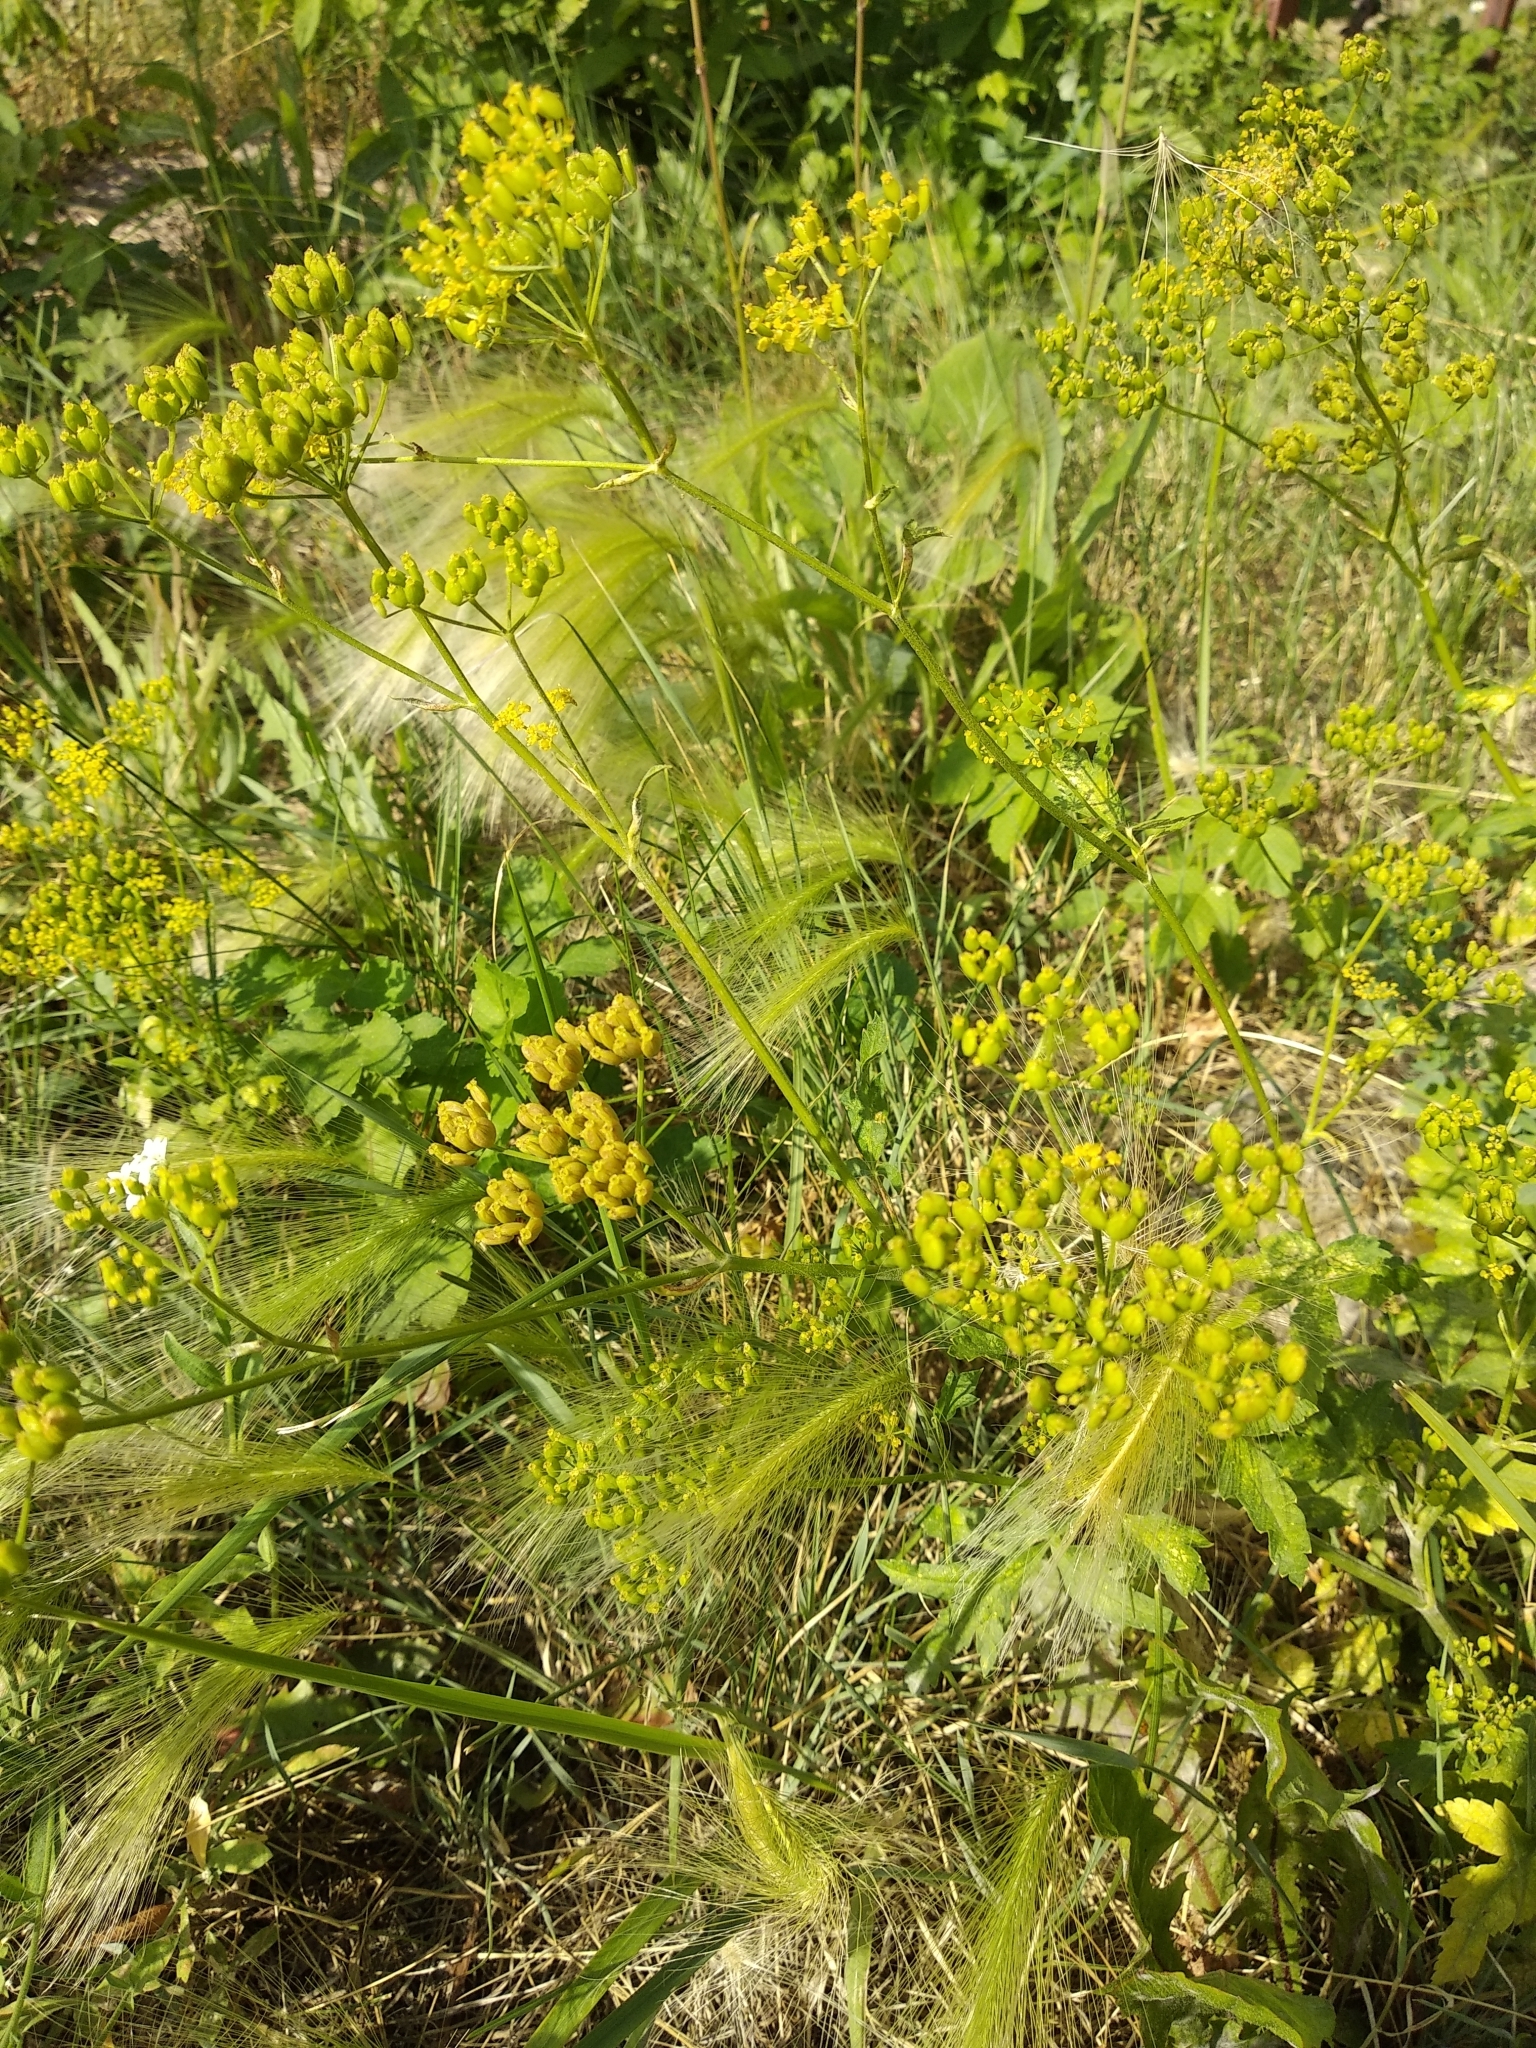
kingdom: Plantae
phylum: Tracheophyta
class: Magnoliopsida
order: Apiales
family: Apiaceae
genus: Pastinaca
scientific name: Pastinaca sativa
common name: Wild parsnip
